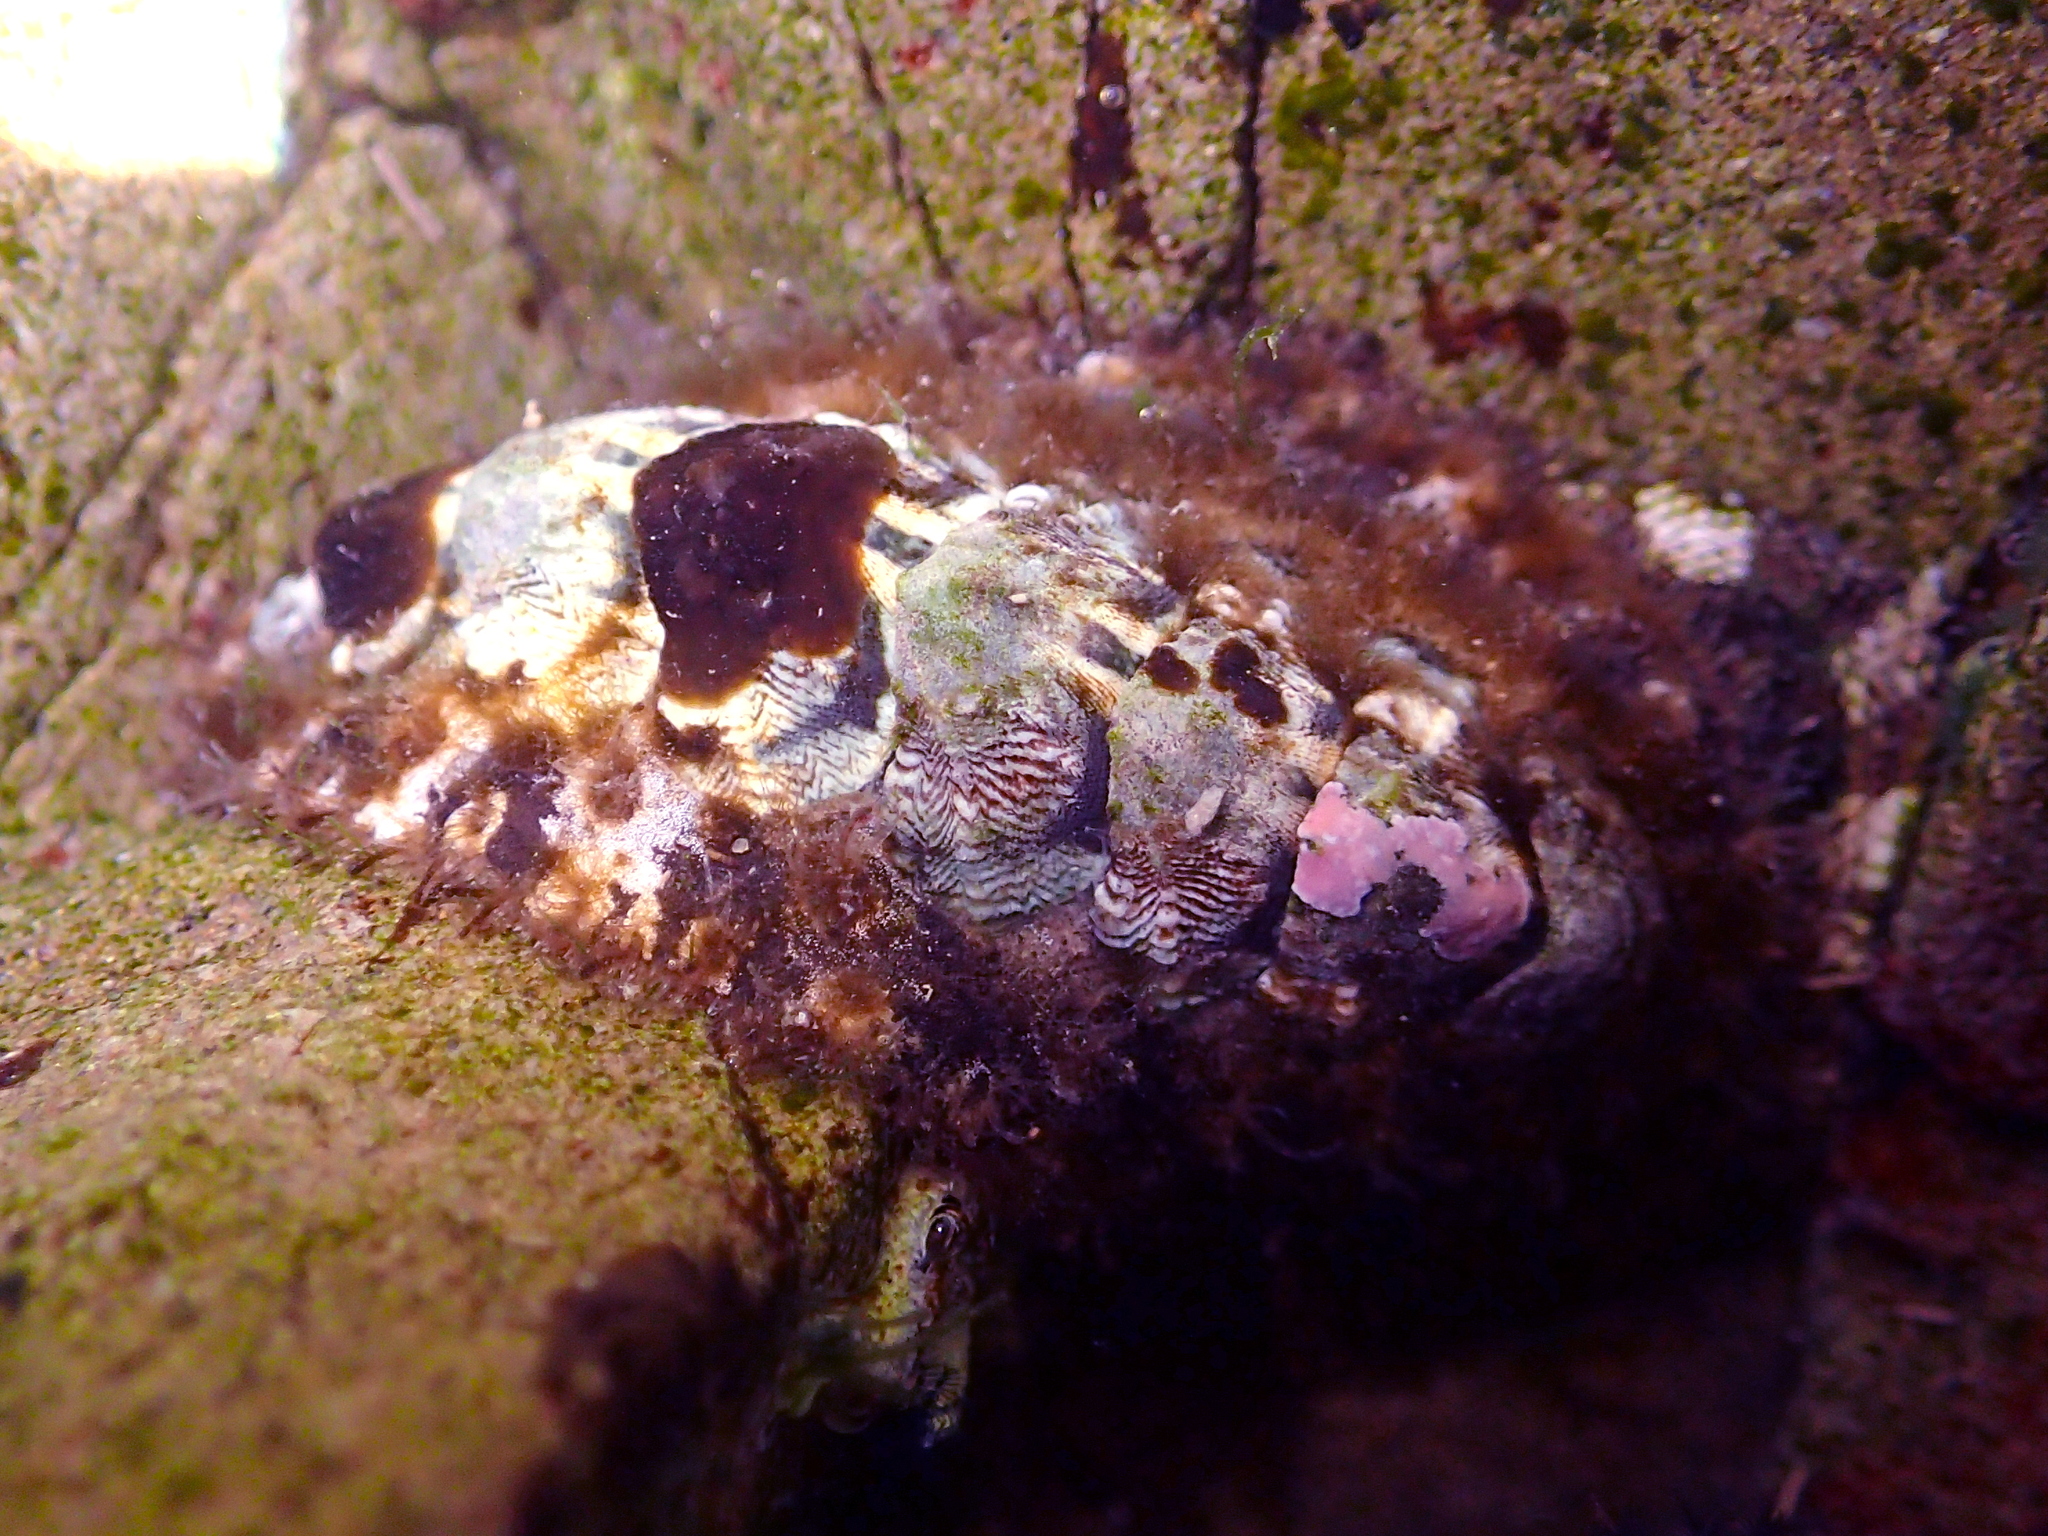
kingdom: Animalia
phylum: Mollusca
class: Polyplacophora
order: Chitonida
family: Mopaliidae
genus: Plaxiphora
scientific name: Plaxiphora caelata
